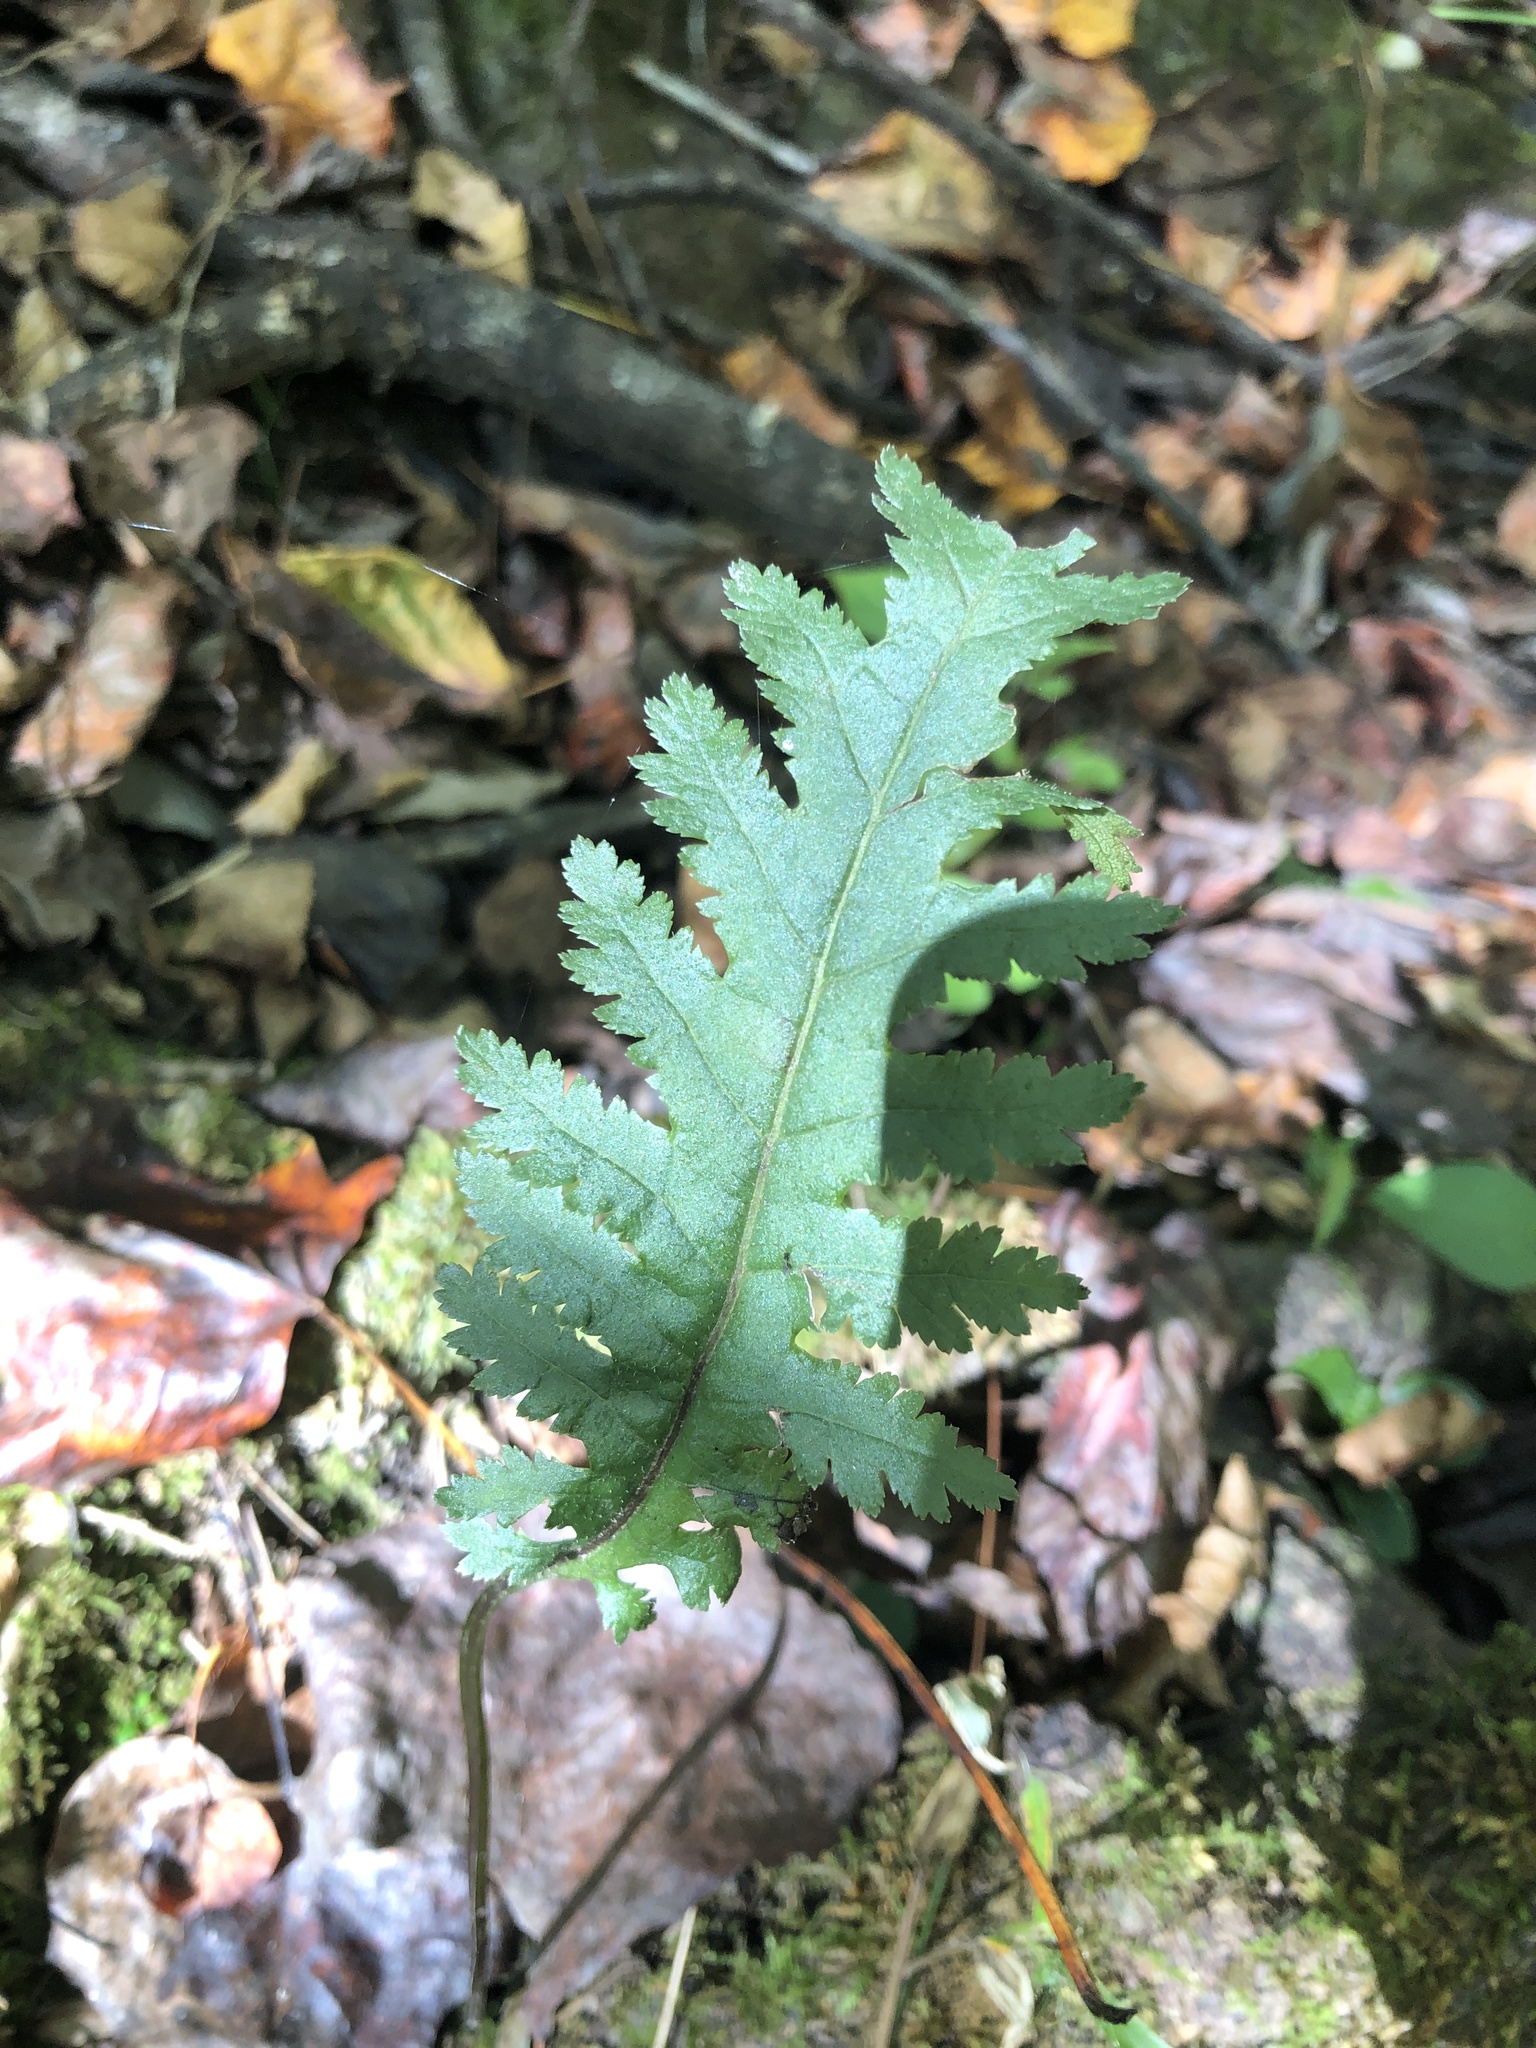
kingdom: Plantae
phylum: Tracheophyta
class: Magnoliopsida
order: Lamiales
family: Orobanchaceae
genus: Pedicularis
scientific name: Pedicularis canadensis
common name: Early lousewort
